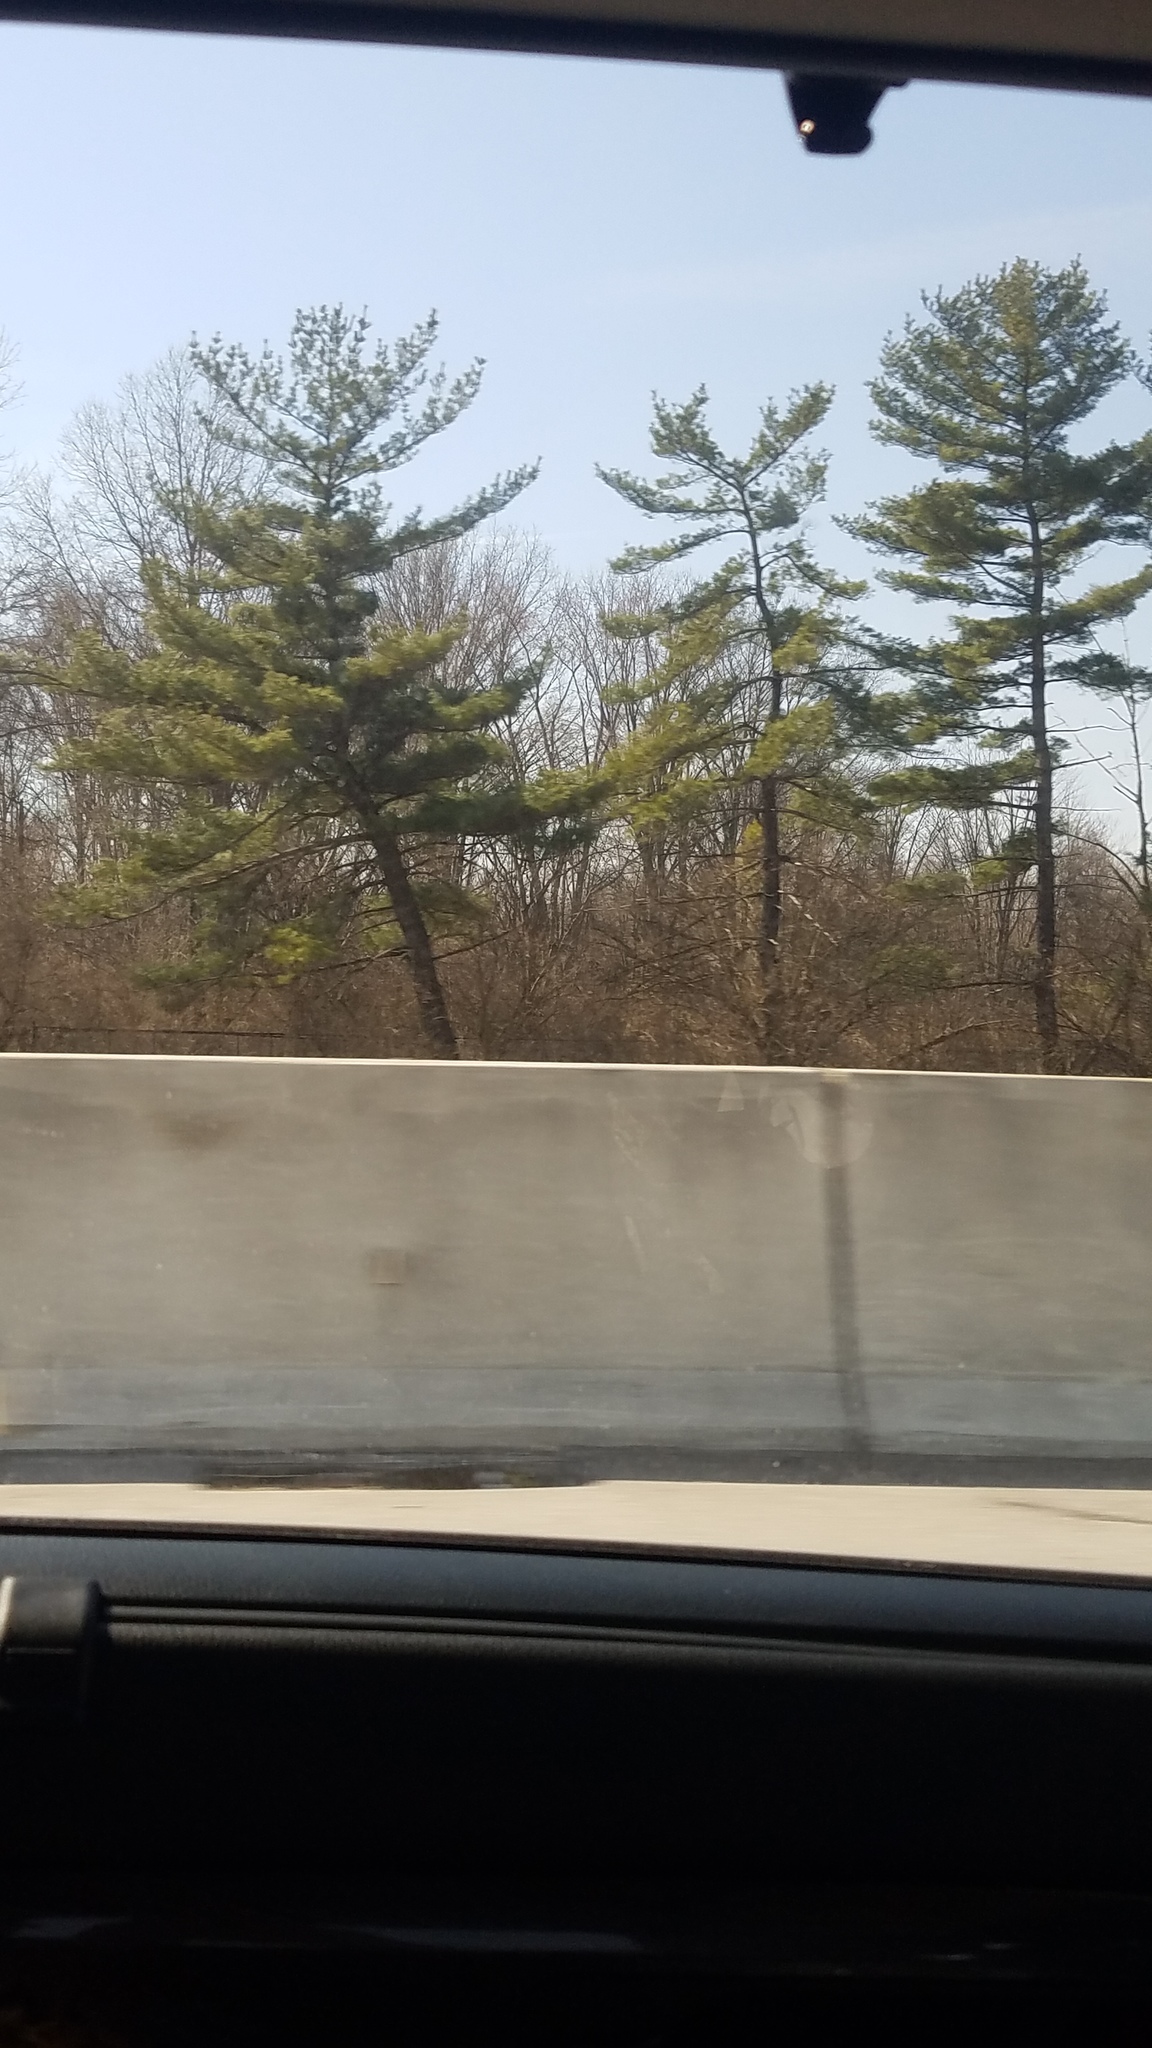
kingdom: Plantae
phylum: Tracheophyta
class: Pinopsida
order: Pinales
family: Pinaceae
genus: Pinus
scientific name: Pinus strobus
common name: Weymouth pine
